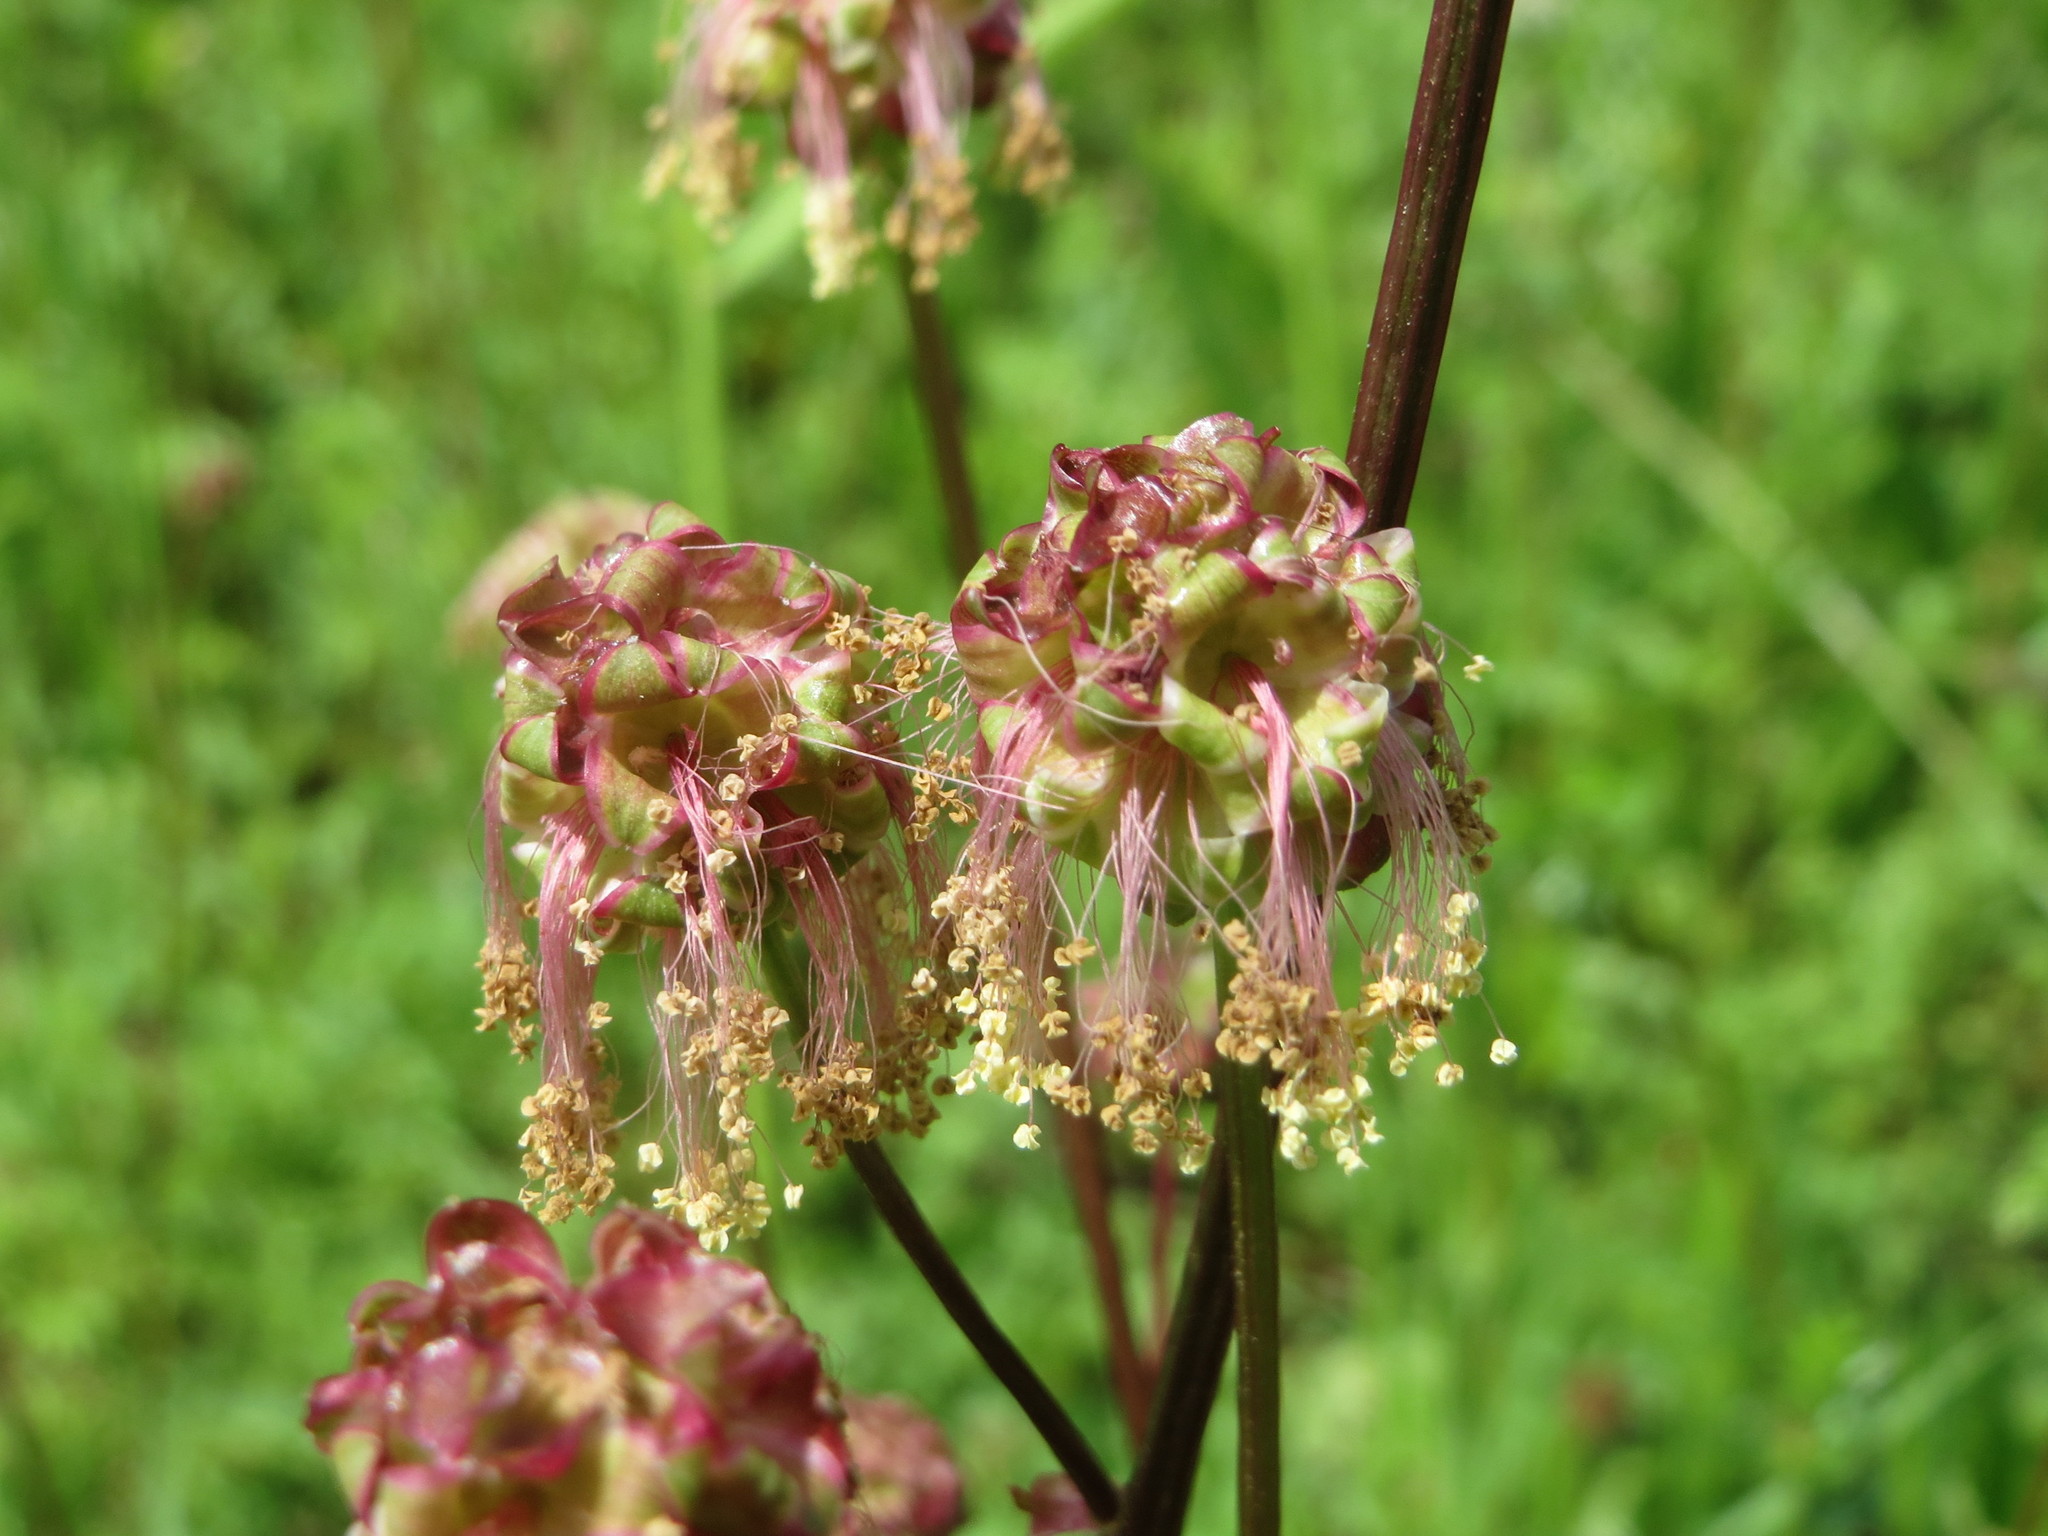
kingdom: Plantae
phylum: Tracheophyta
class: Magnoliopsida
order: Rosales
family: Rosaceae
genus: Poterium
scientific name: Poterium sanguisorba
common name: Salad burnet
